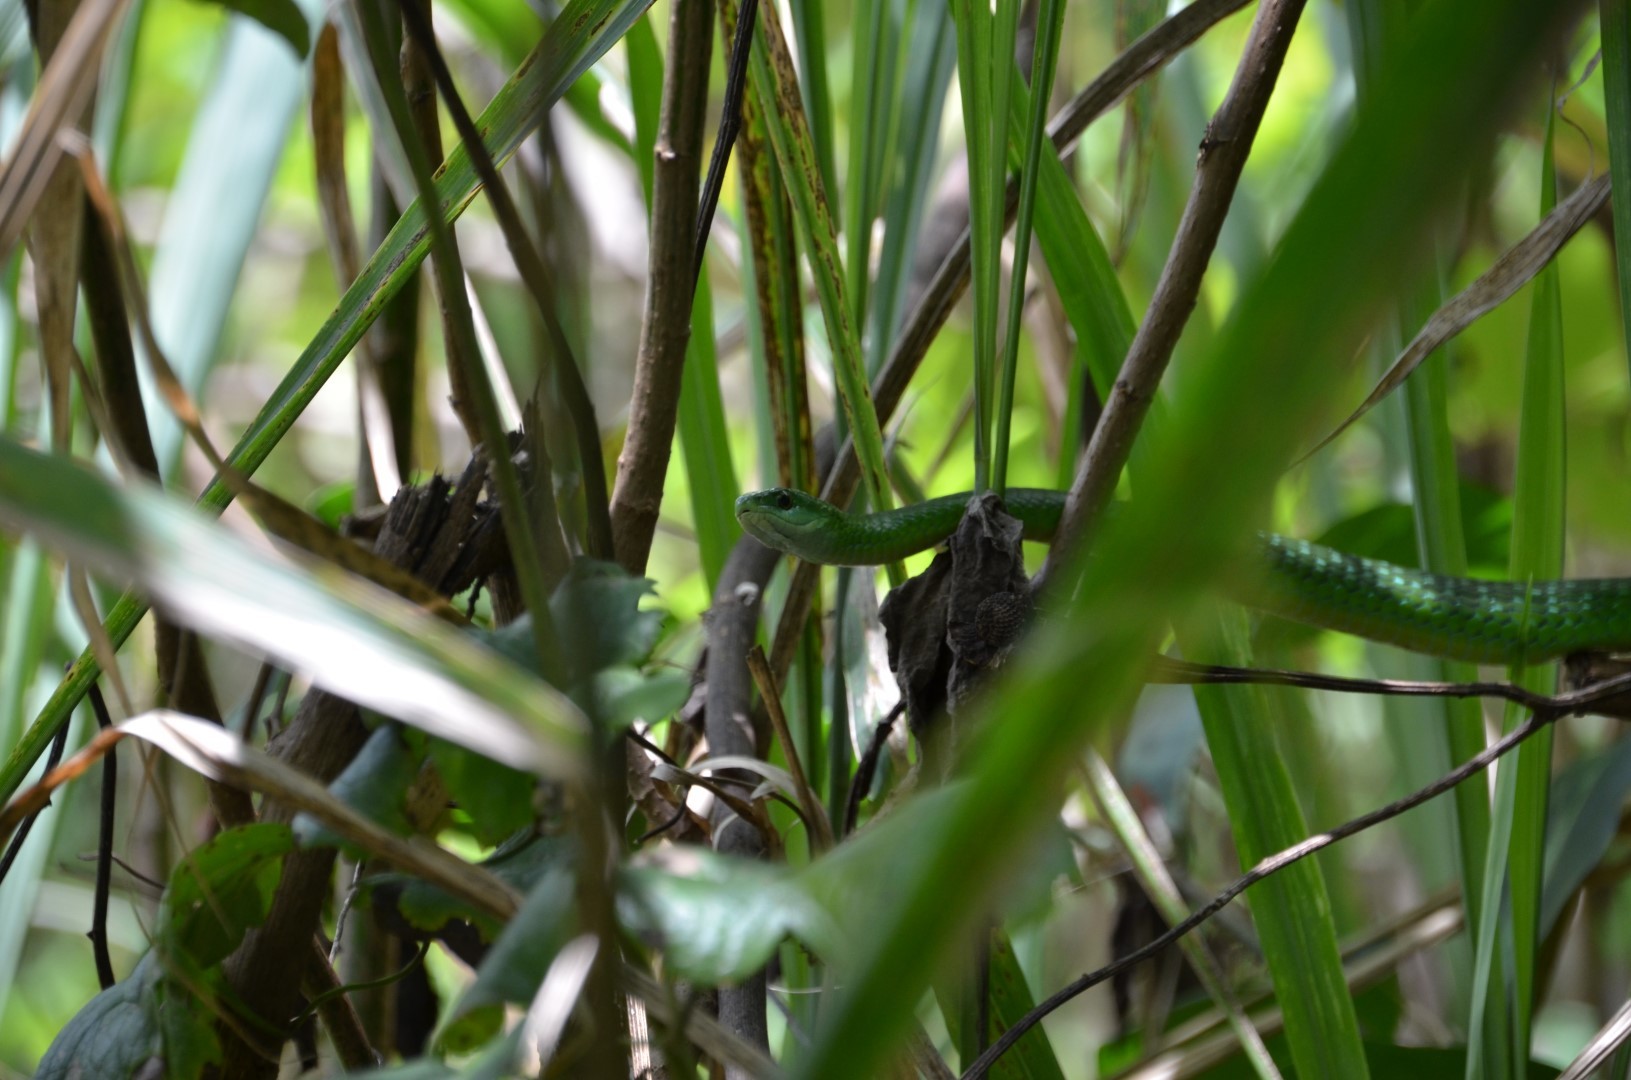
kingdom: Animalia
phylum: Chordata
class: Squamata
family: Colubridae
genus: Philothamnus
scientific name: Philothamnus angolensis
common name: Angola green snake
